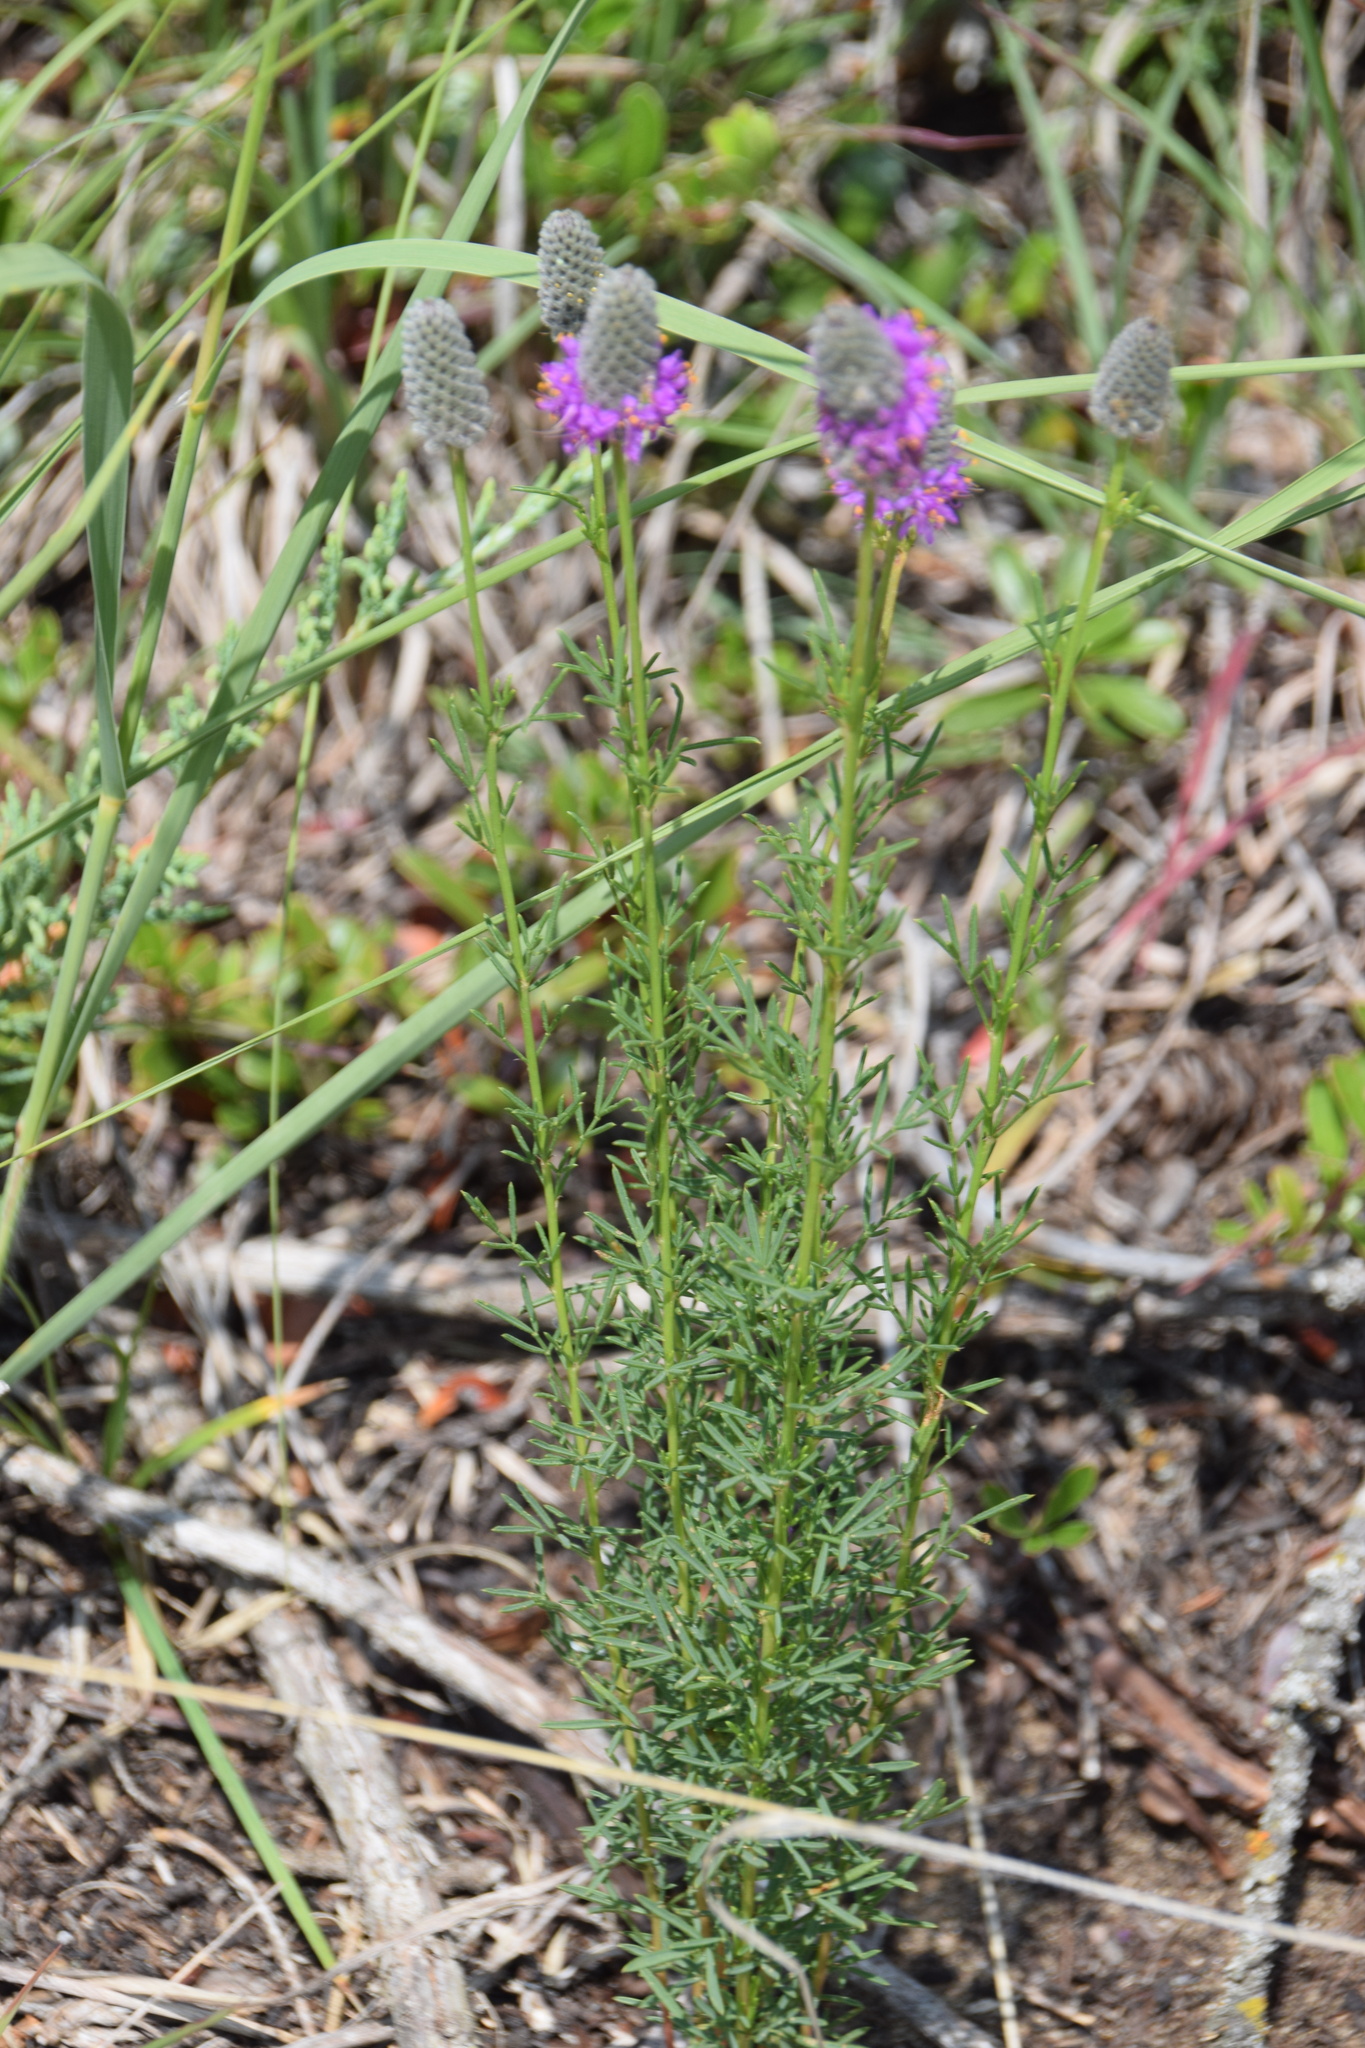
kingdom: Plantae
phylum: Tracheophyta
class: Magnoliopsida
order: Fabales
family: Fabaceae
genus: Dalea
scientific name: Dalea purpurea
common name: Purple prairie-clover
